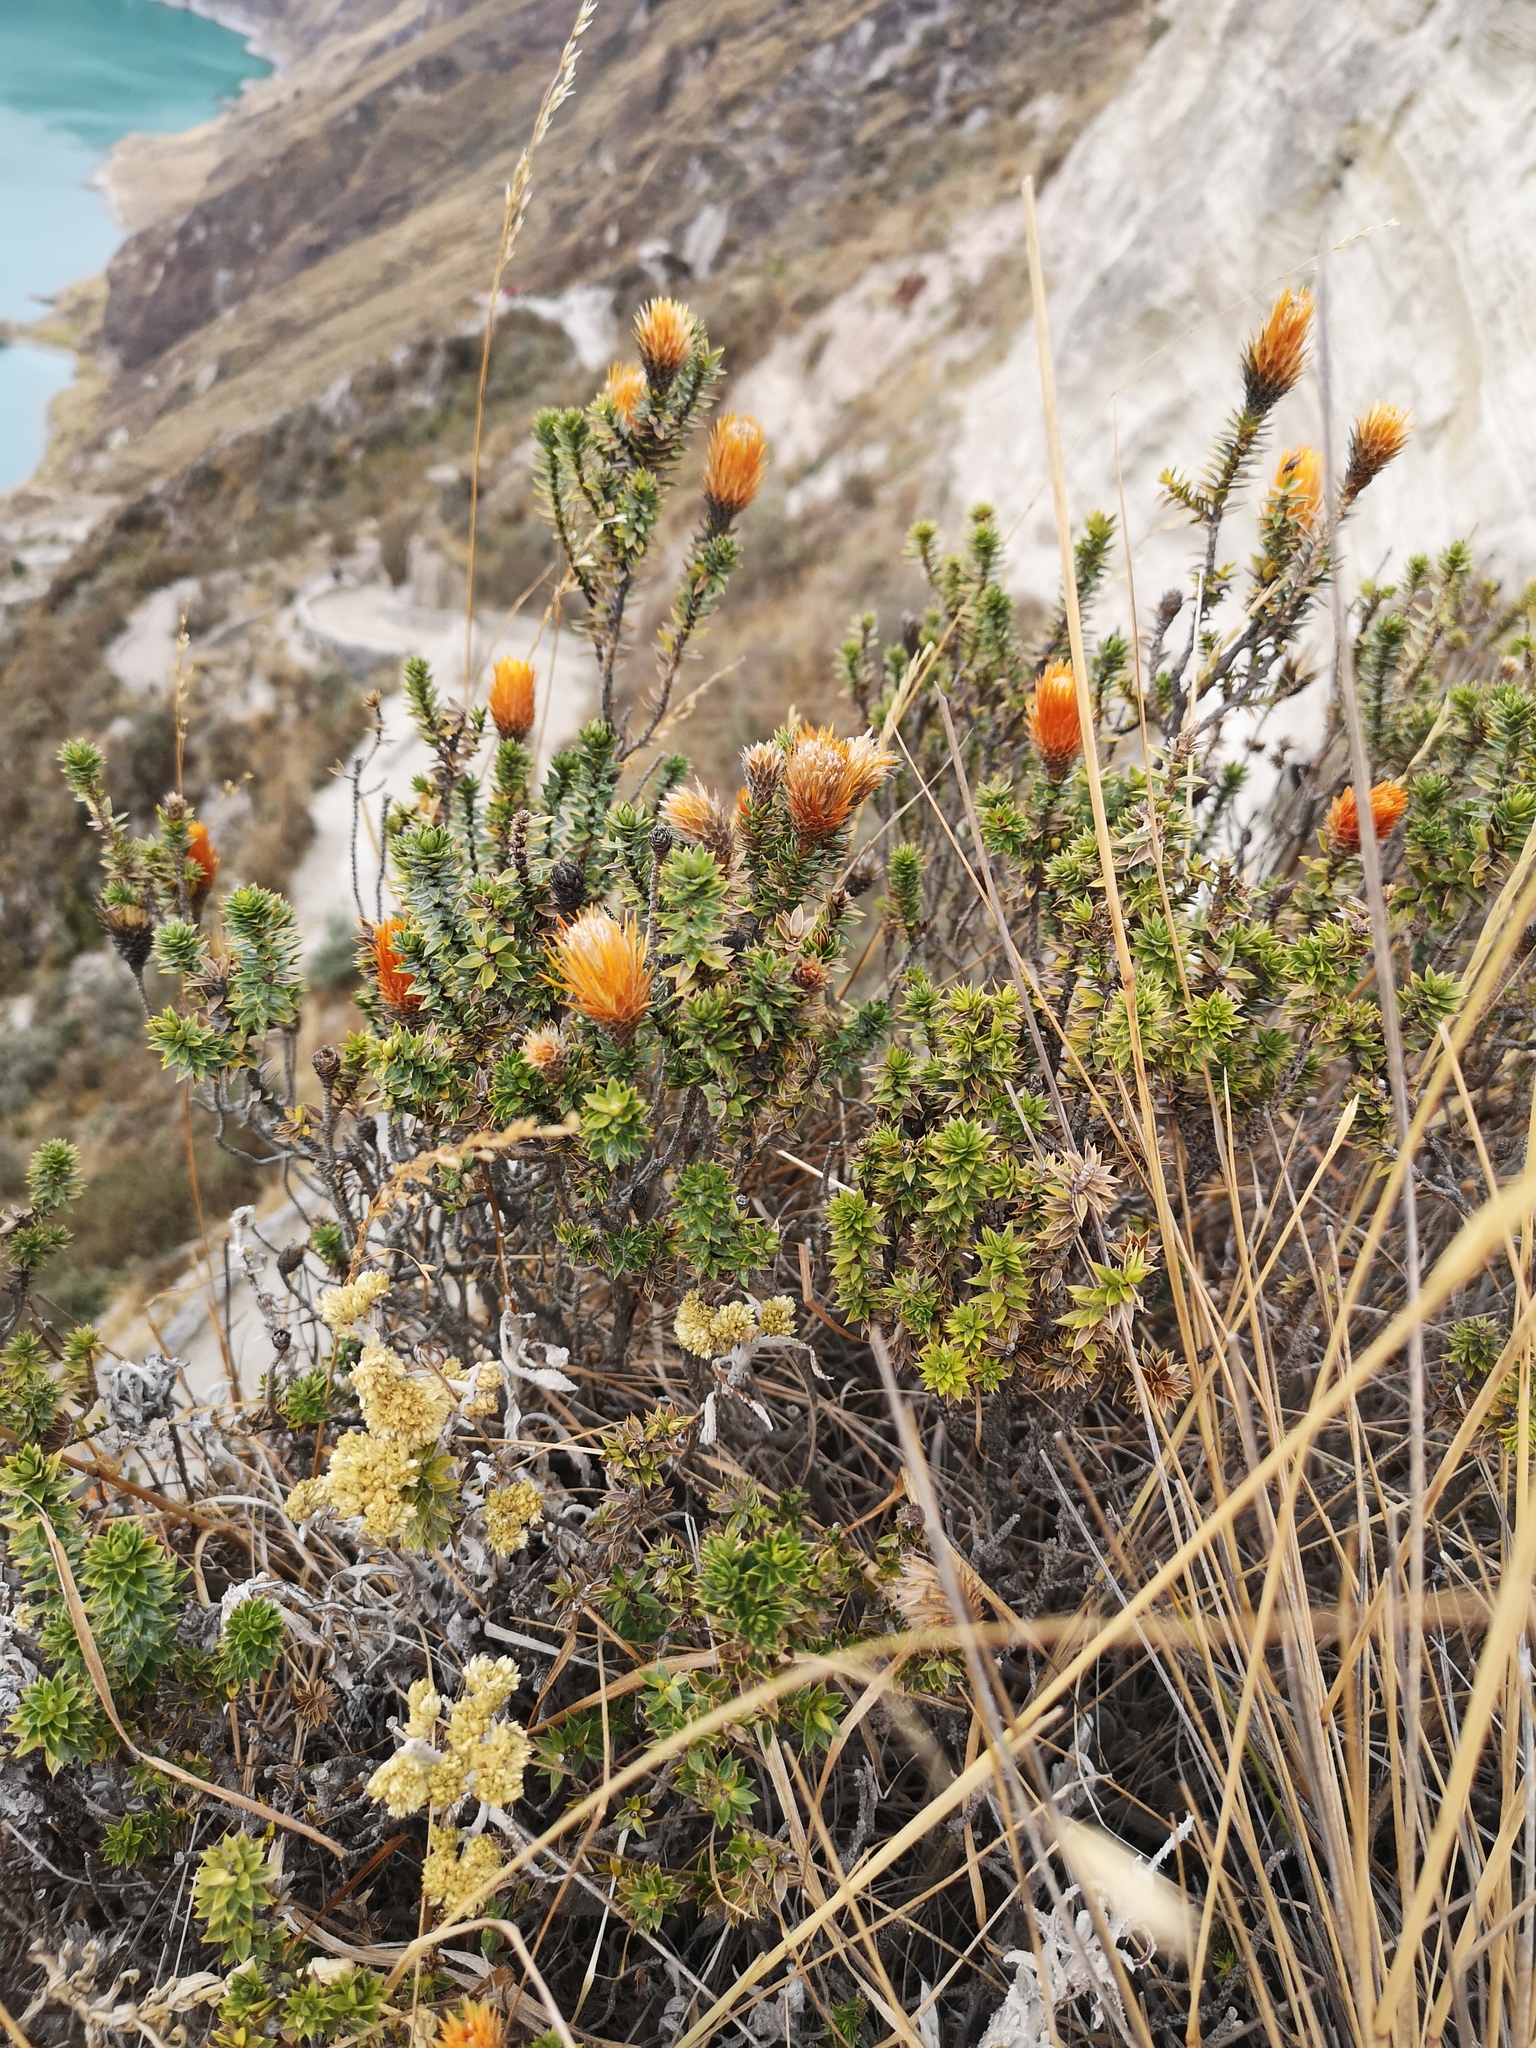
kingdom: Plantae
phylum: Tracheophyta
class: Magnoliopsida
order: Asterales
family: Asteraceae
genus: Chuquiraga
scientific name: Chuquiraga jussieui
